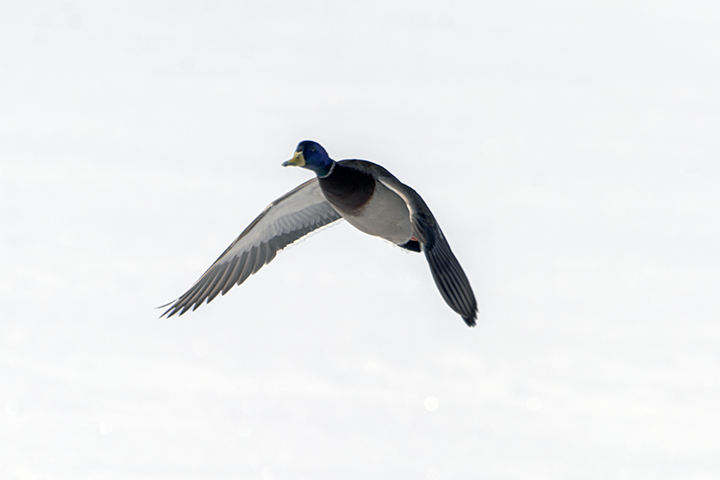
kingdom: Animalia
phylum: Chordata
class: Aves
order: Anseriformes
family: Anatidae
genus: Anas
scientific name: Anas platyrhynchos
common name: Mallard
